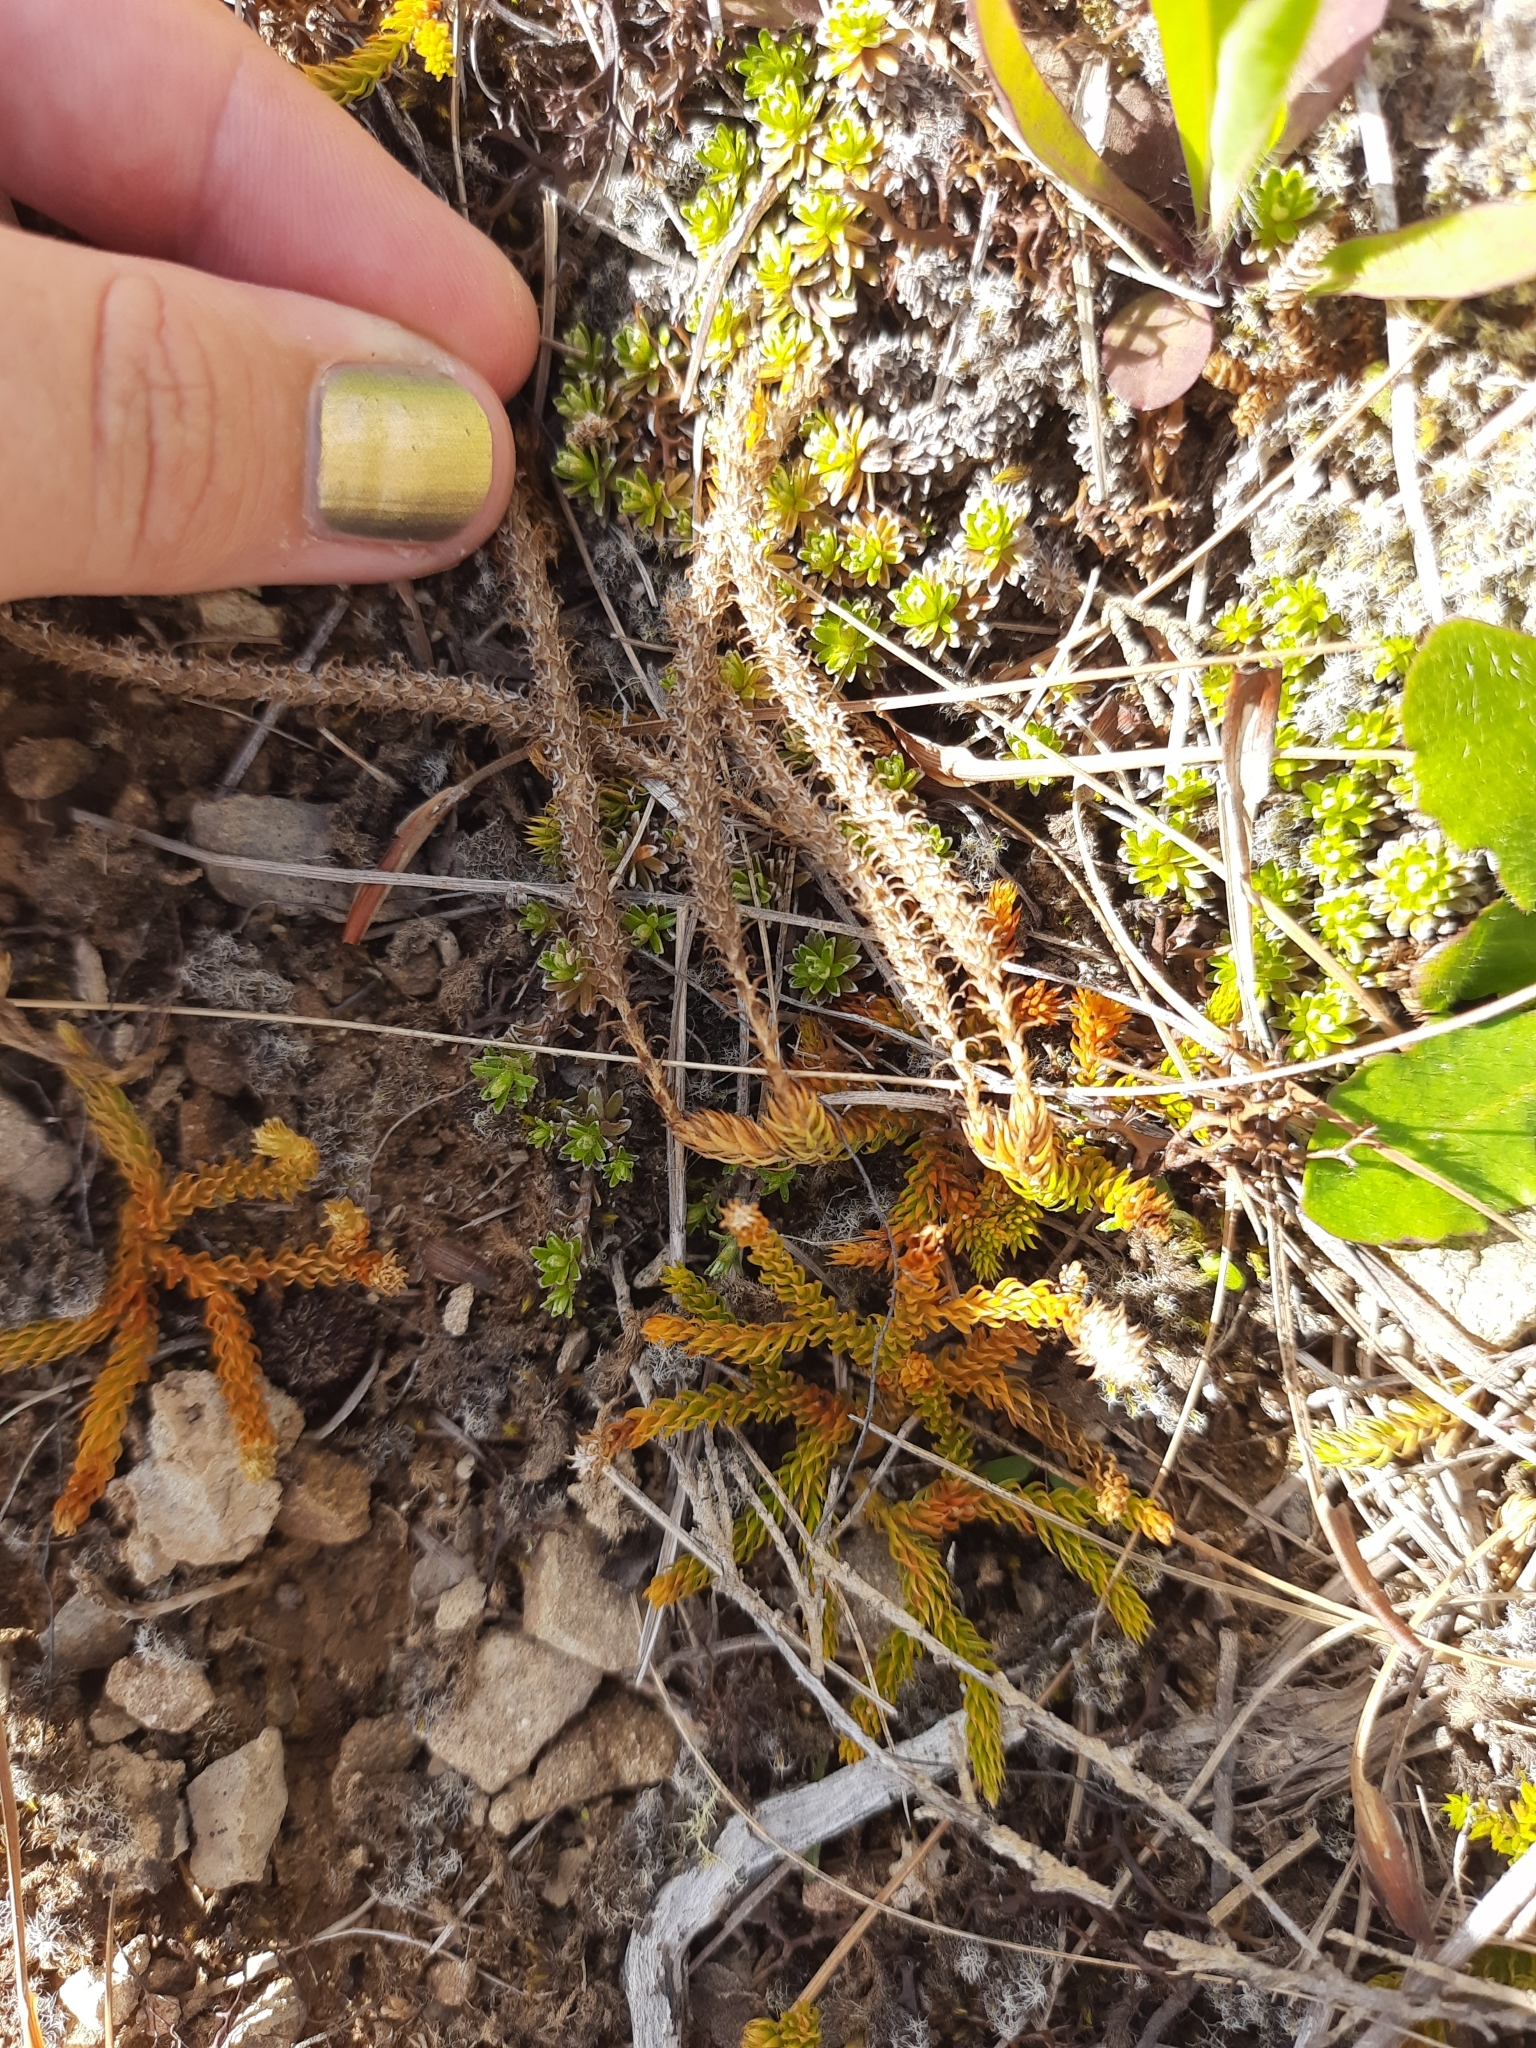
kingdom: Plantae
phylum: Tracheophyta
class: Lycopodiopsida
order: Lycopodiales
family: Lycopodiaceae
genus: Austrolycopodium
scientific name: Austrolycopodium fastigiatum
